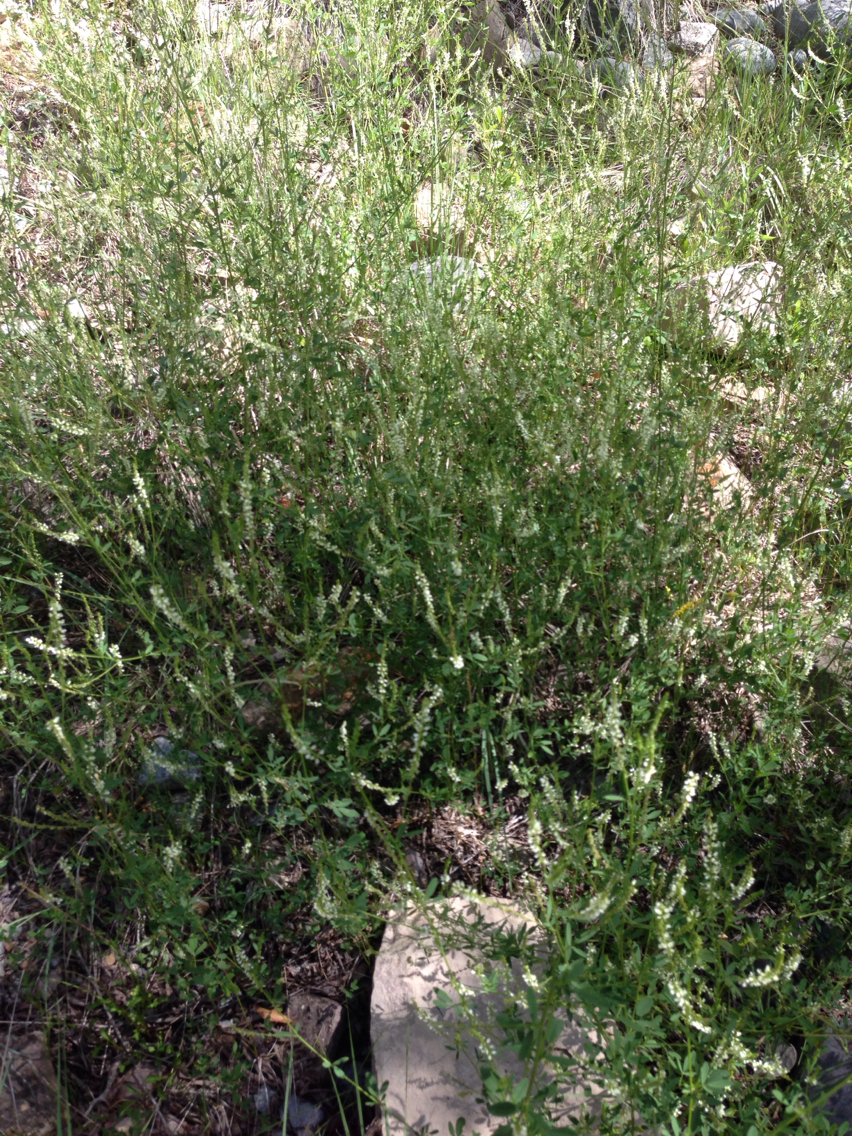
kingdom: Plantae
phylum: Tracheophyta
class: Magnoliopsida
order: Fabales
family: Fabaceae
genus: Melilotus
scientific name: Melilotus albus
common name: White melilot
